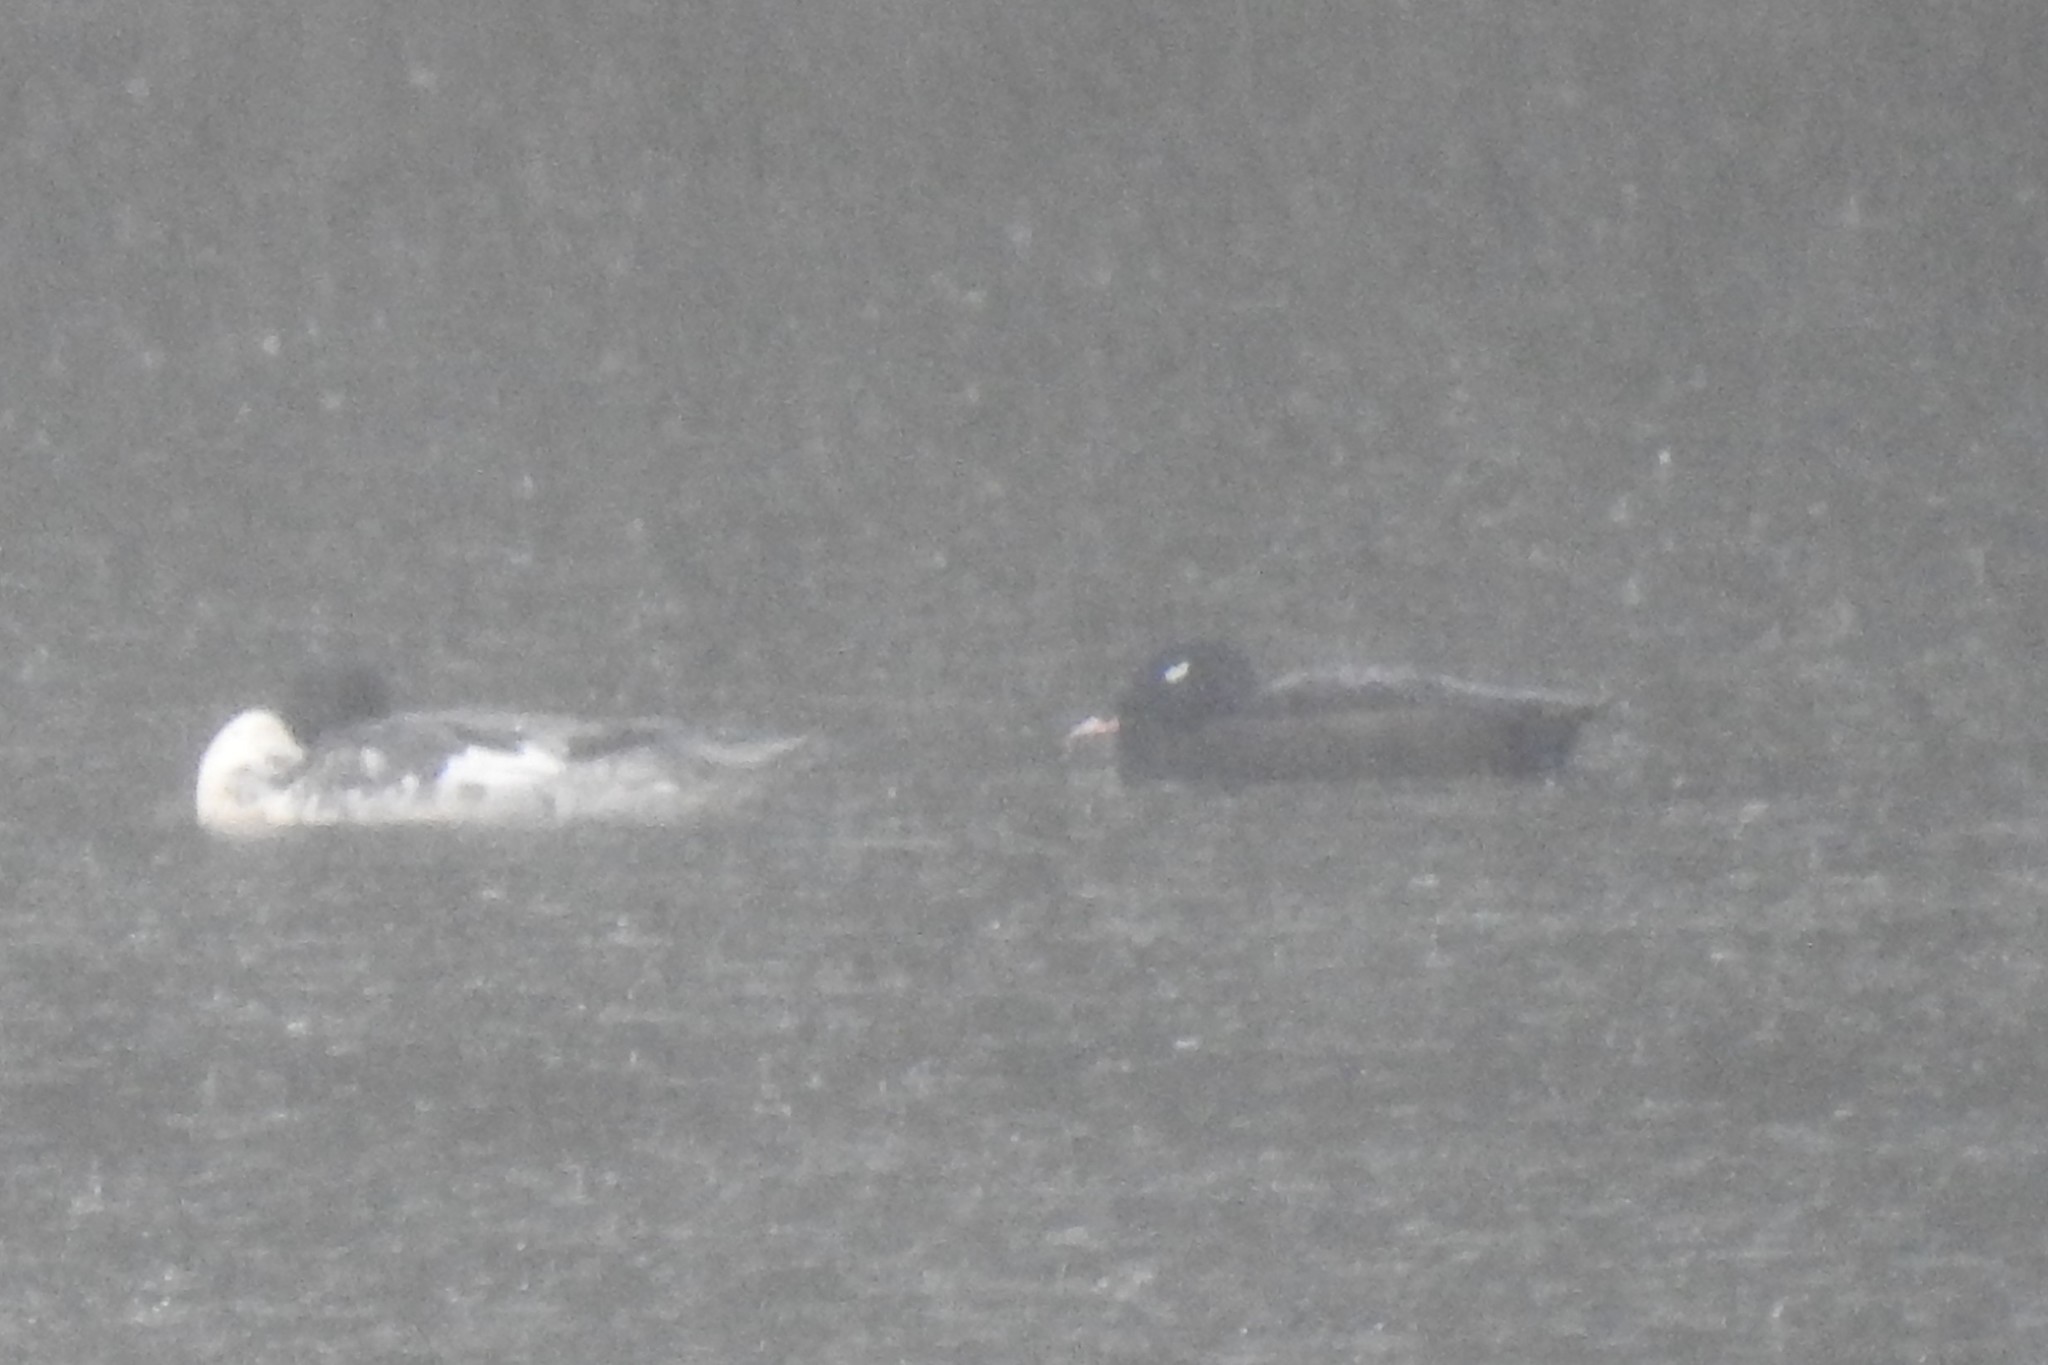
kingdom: Animalia
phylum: Chordata
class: Aves
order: Anseriformes
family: Anatidae
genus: Melanitta
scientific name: Melanitta deglandi
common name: White-winged scoter
